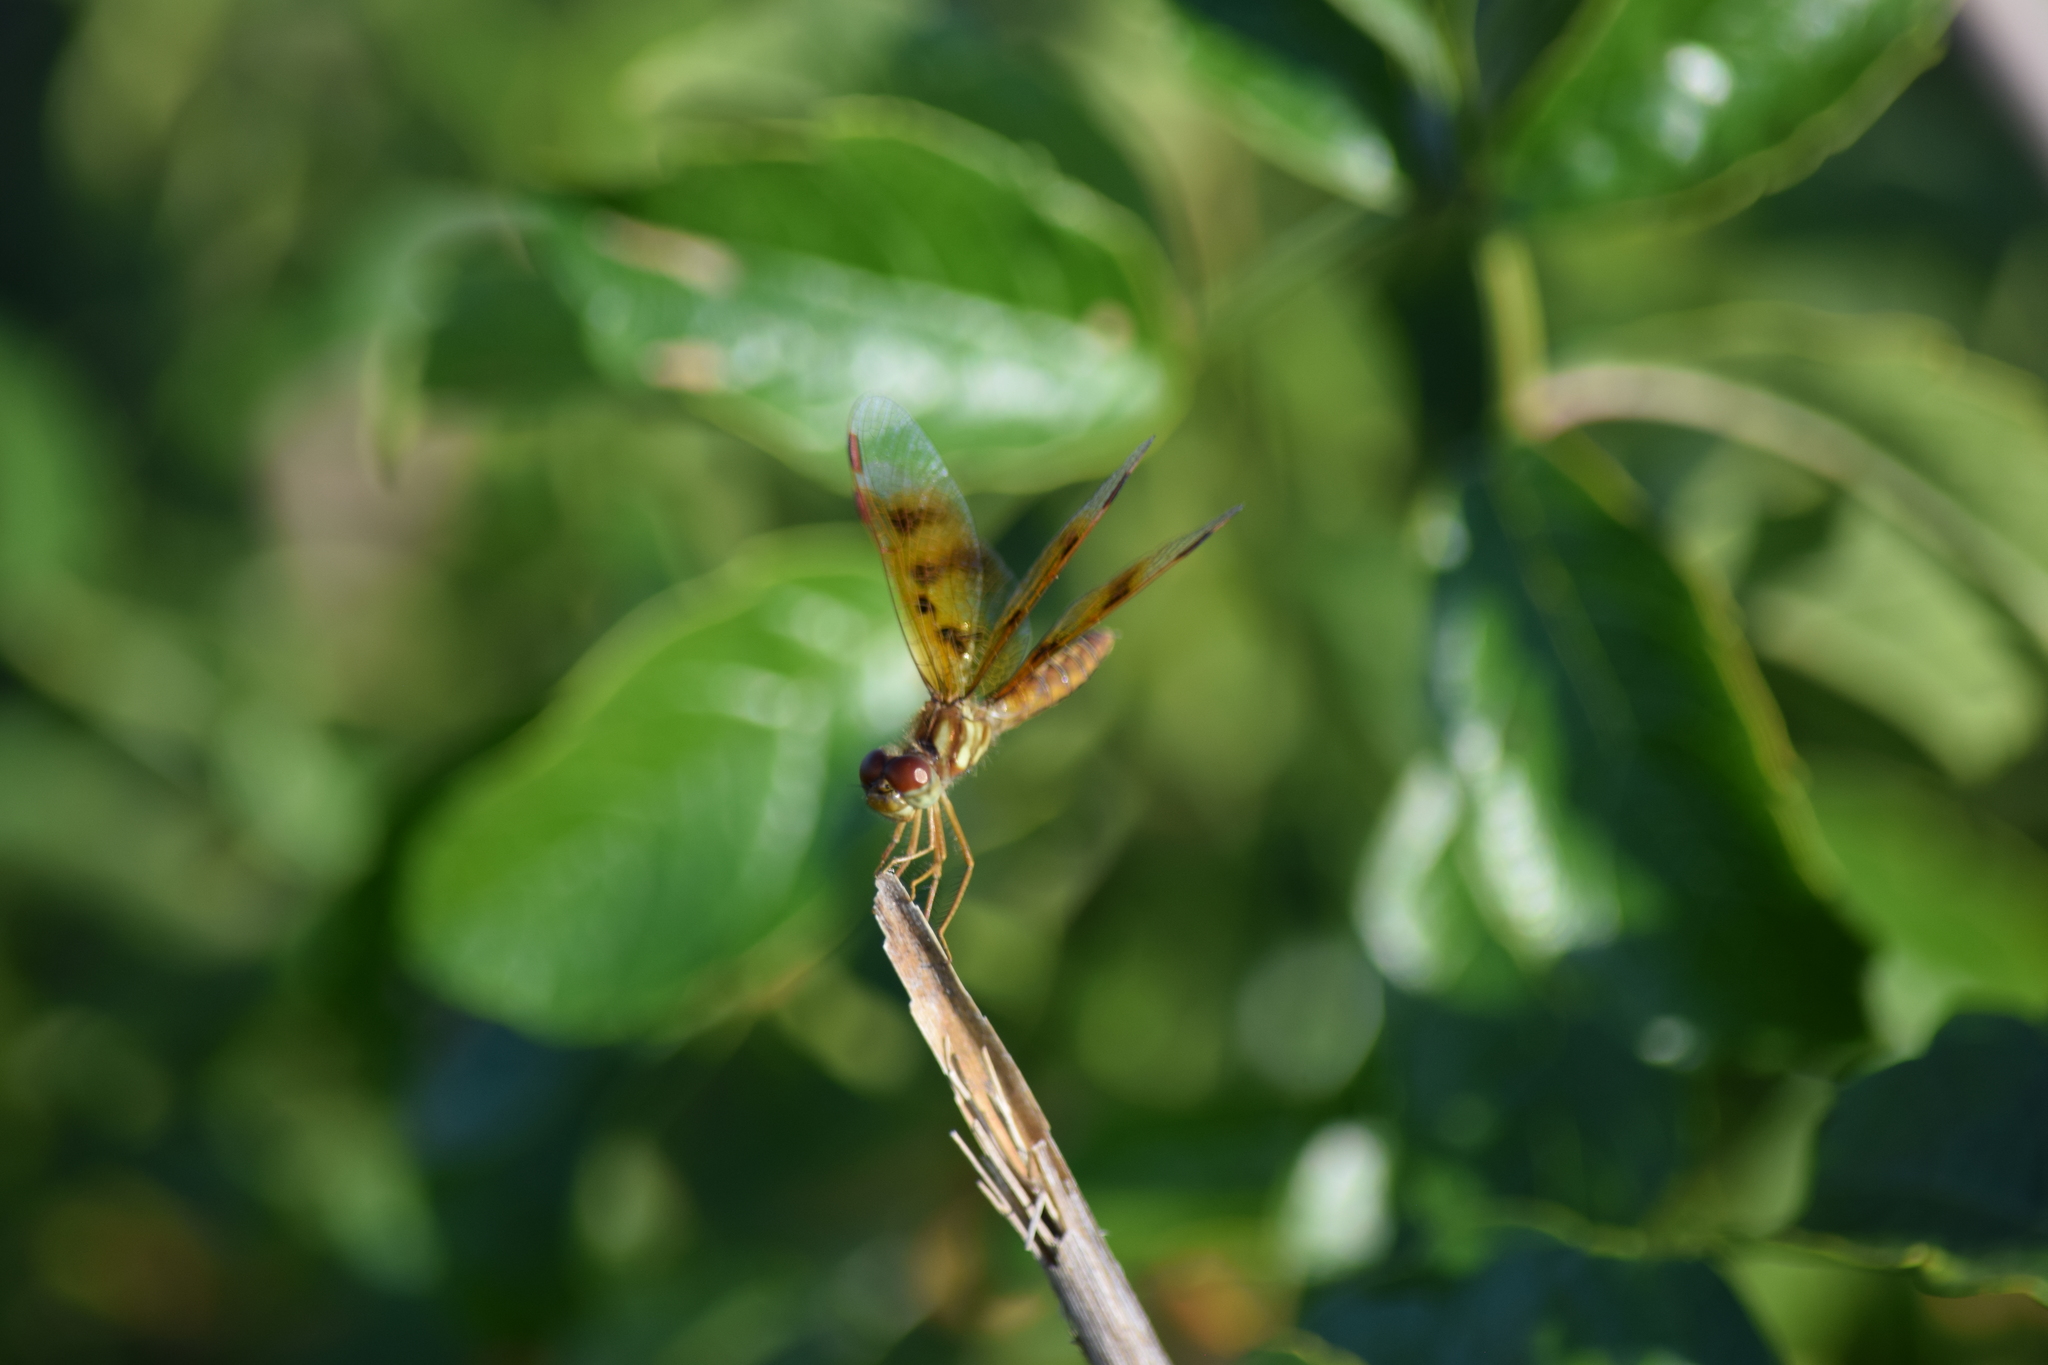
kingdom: Animalia
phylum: Arthropoda
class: Insecta
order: Odonata
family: Libellulidae
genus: Perithemis
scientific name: Perithemis tenera
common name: Eastern amberwing
